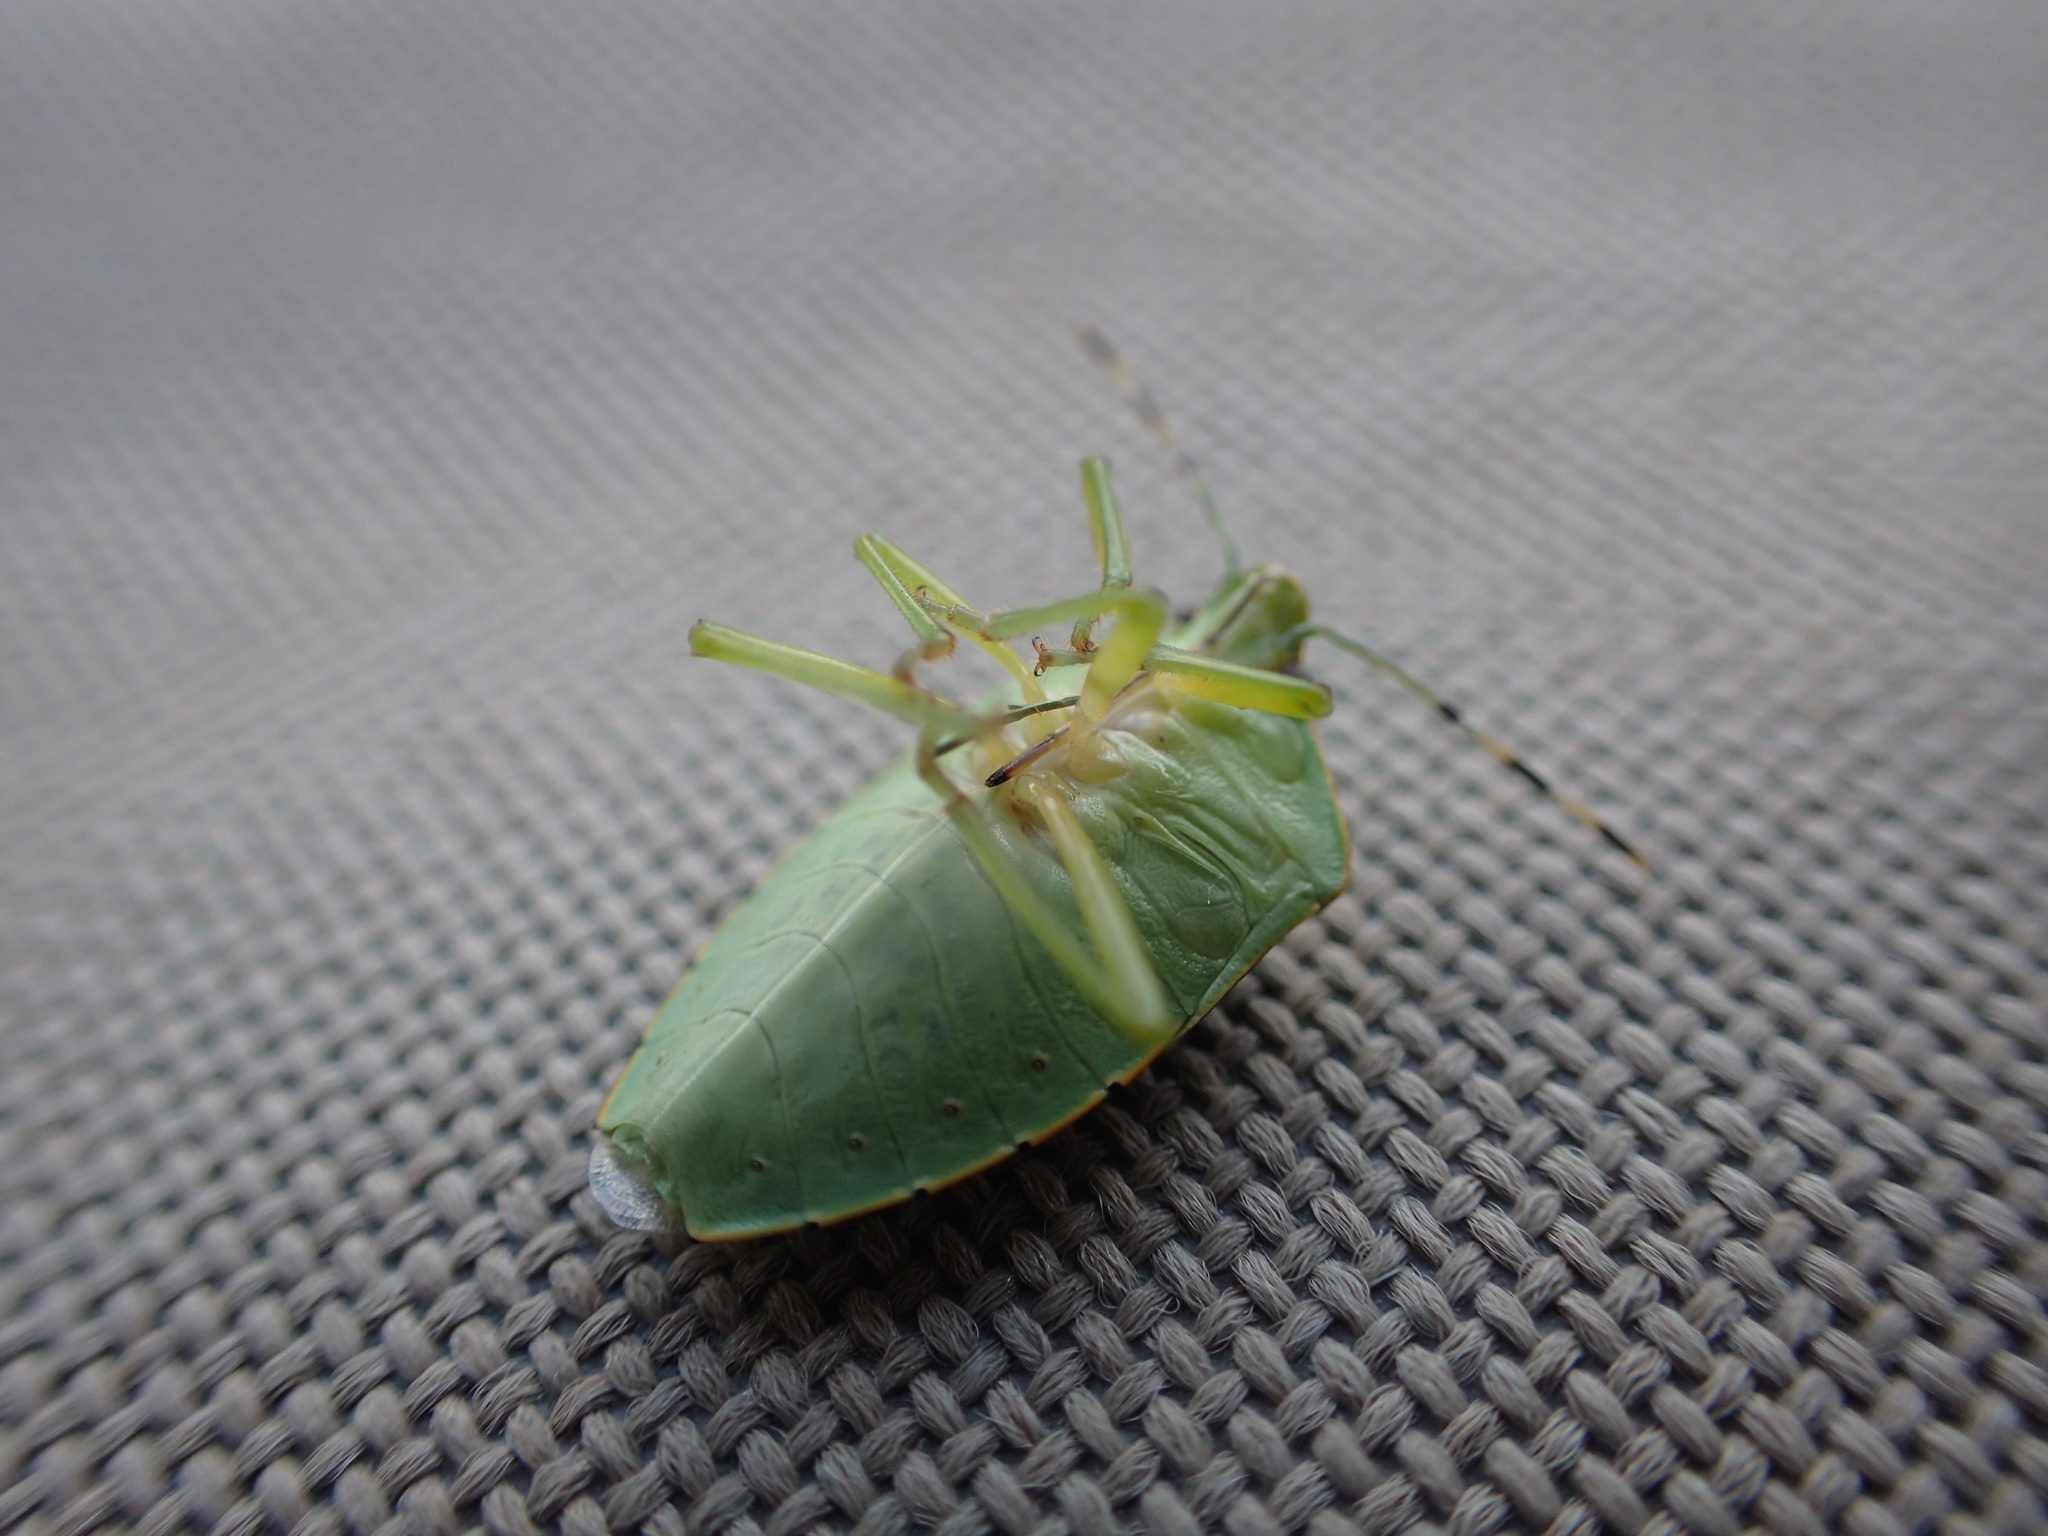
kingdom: Animalia
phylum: Arthropoda
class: Insecta
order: Hemiptera
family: Pentatomidae
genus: Chinavia
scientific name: Chinavia hilaris
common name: Green stink bug
